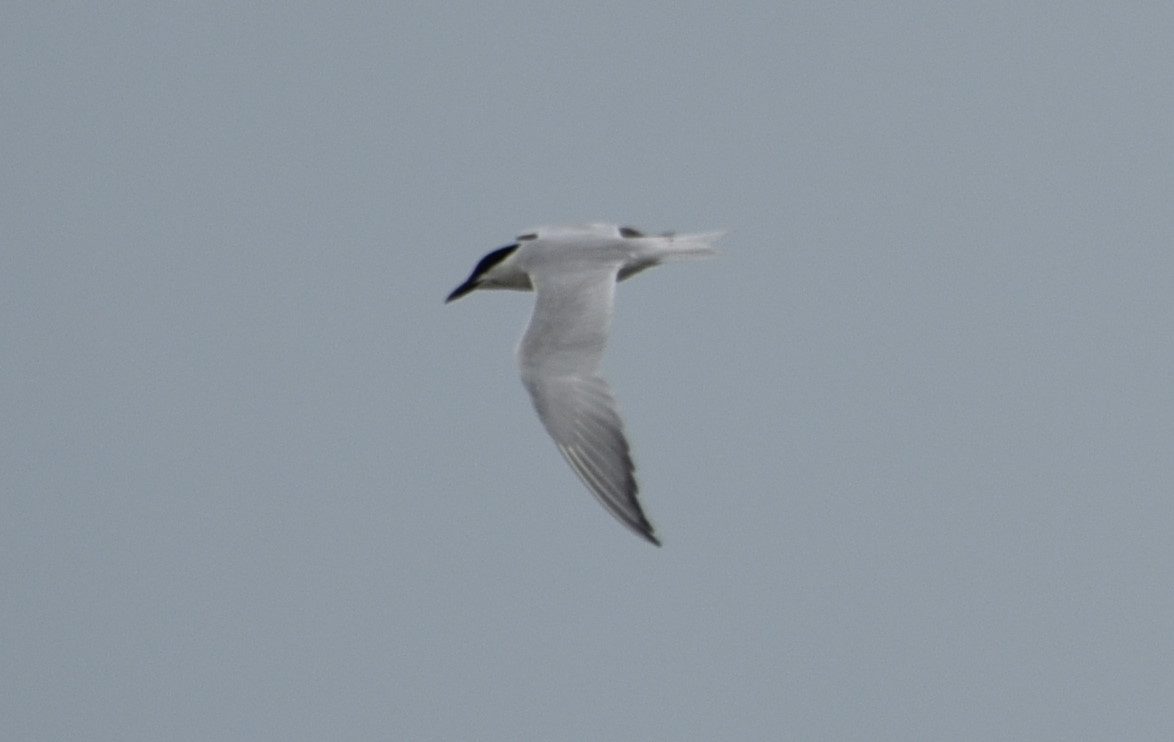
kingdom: Animalia
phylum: Chordata
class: Aves
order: Charadriiformes
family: Laridae
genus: Gelochelidon
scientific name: Gelochelidon nilotica
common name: Gull-billed tern
